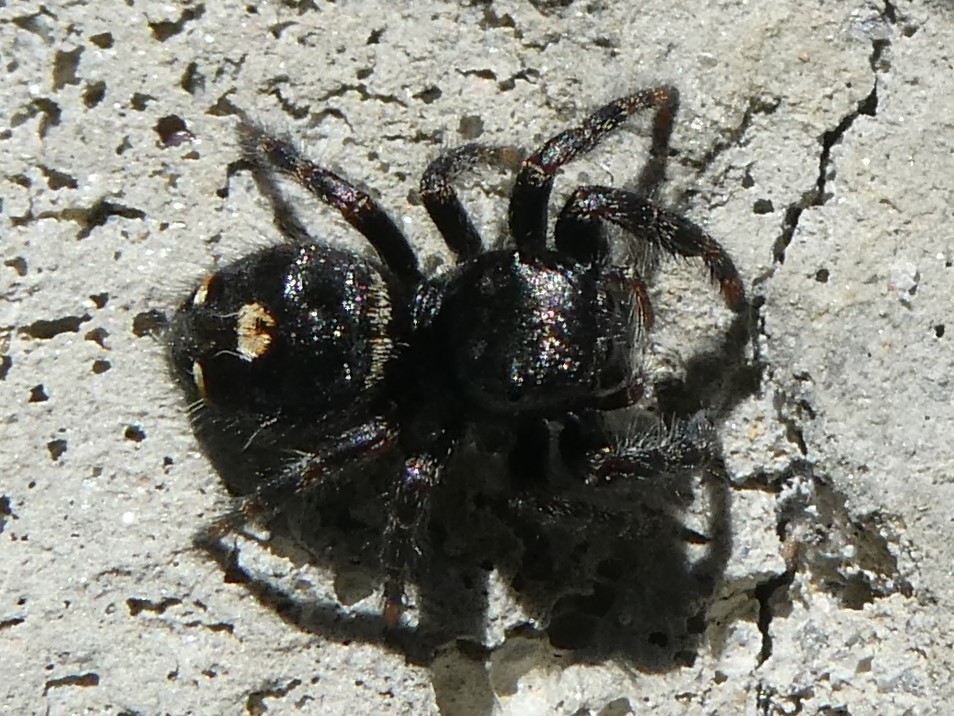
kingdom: Animalia
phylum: Arthropoda
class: Arachnida
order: Araneae
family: Salticidae
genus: Phidippus
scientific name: Phidippus audax
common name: Bold jumper
